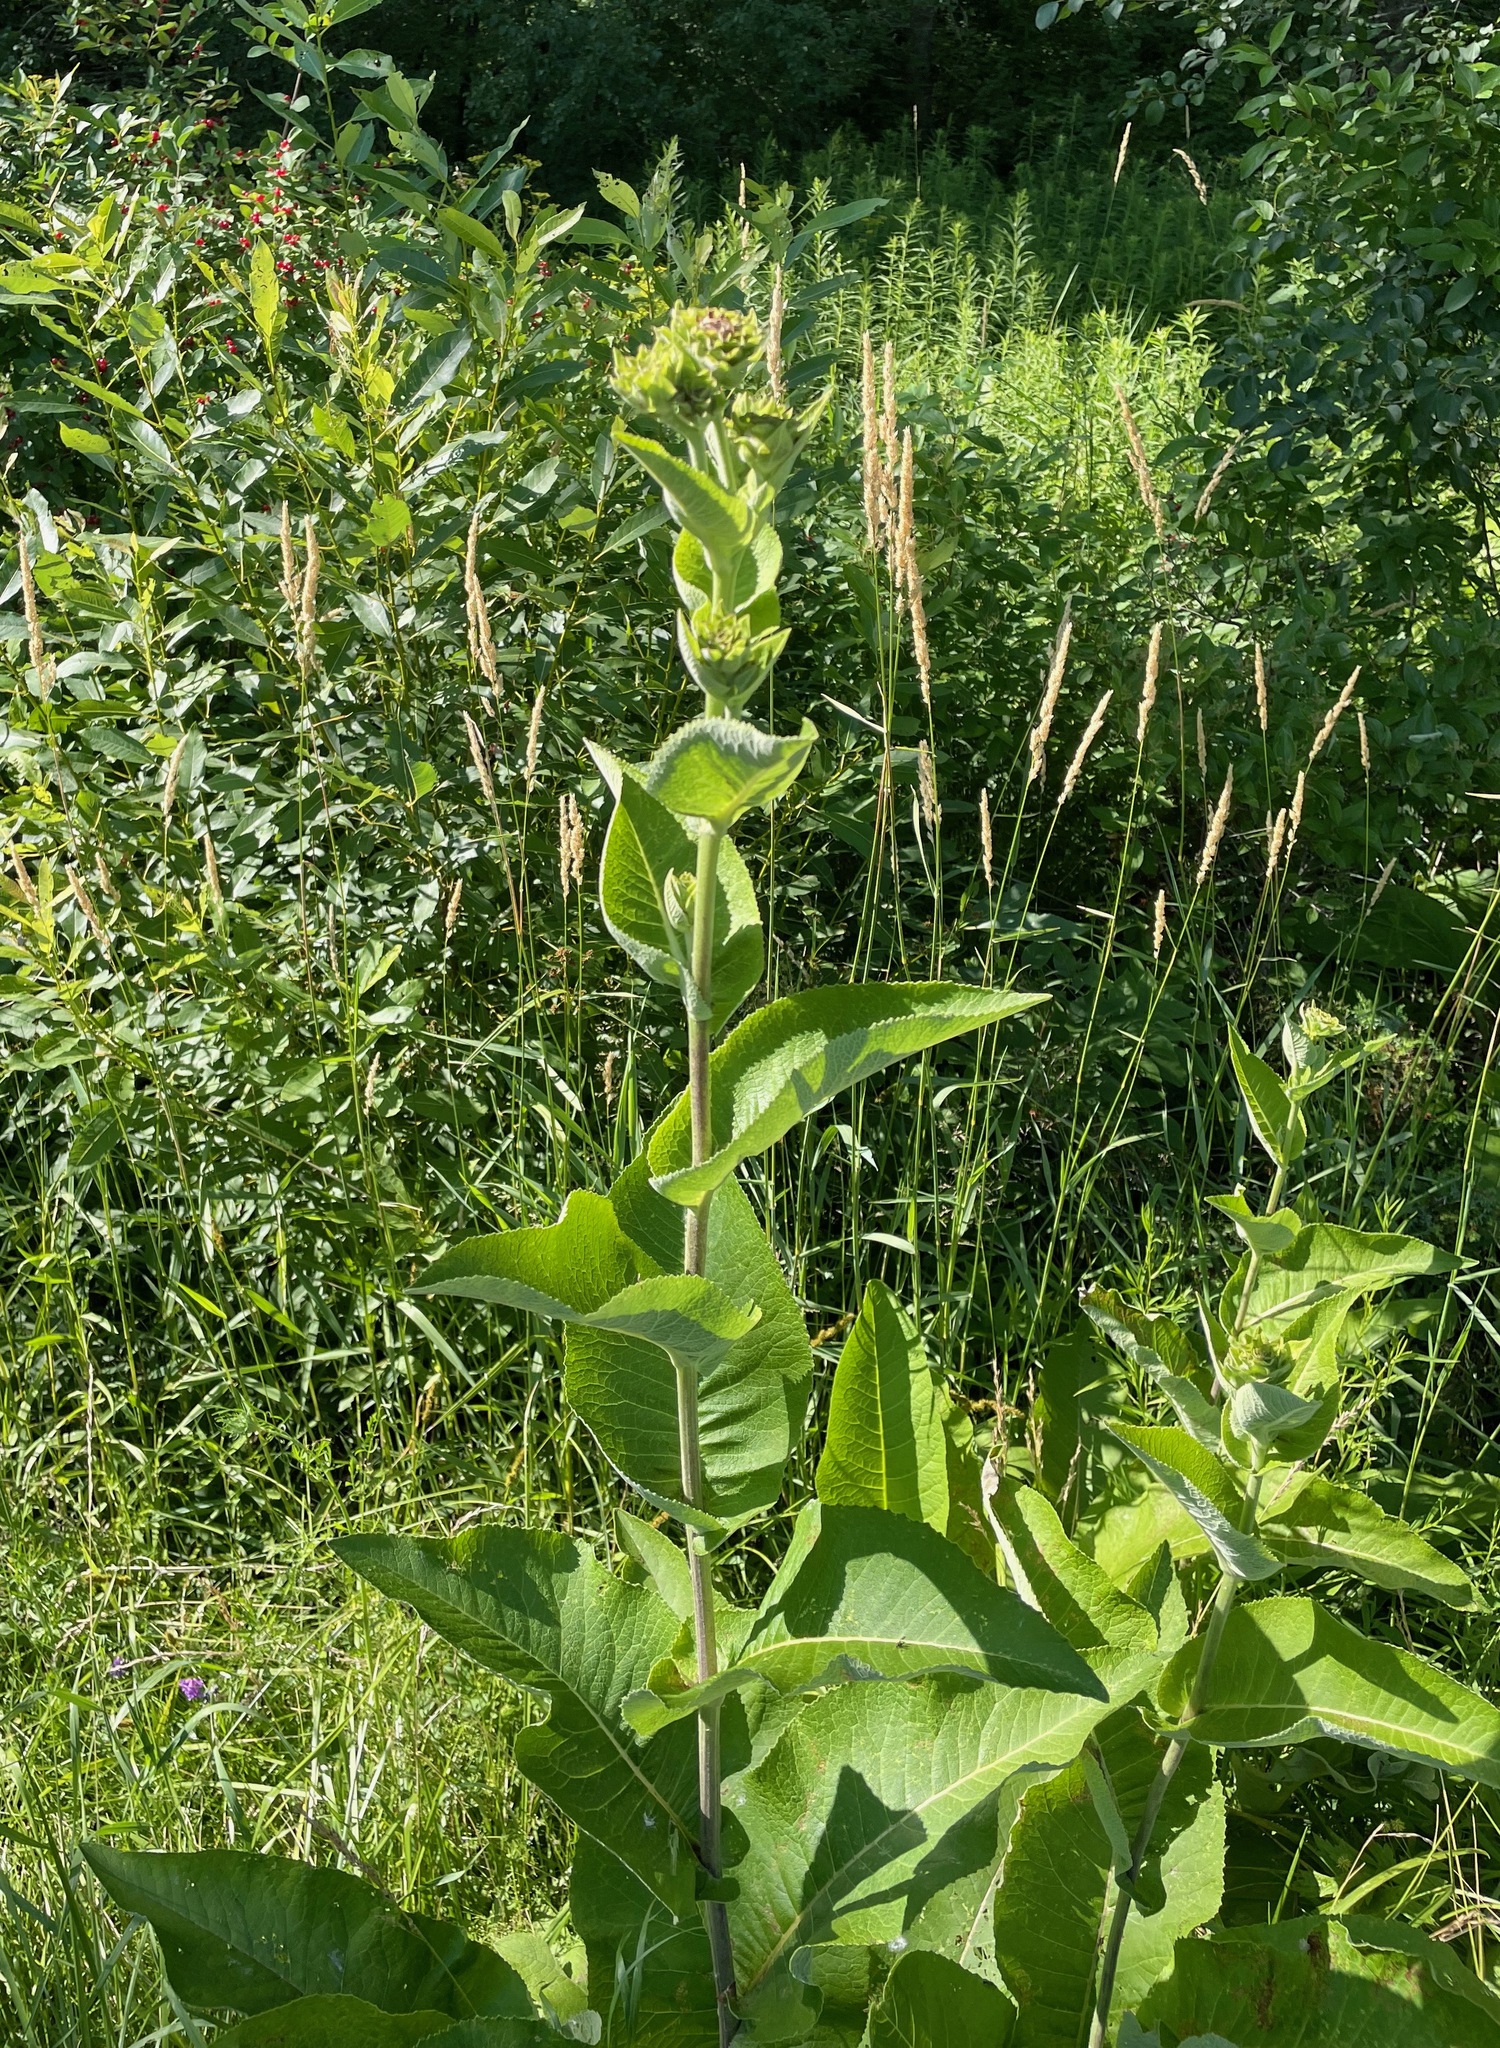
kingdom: Plantae
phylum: Tracheophyta
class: Magnoliopsida
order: Asterales
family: Asteraceae
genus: Inula
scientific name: Inula helenium
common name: Elecampane
